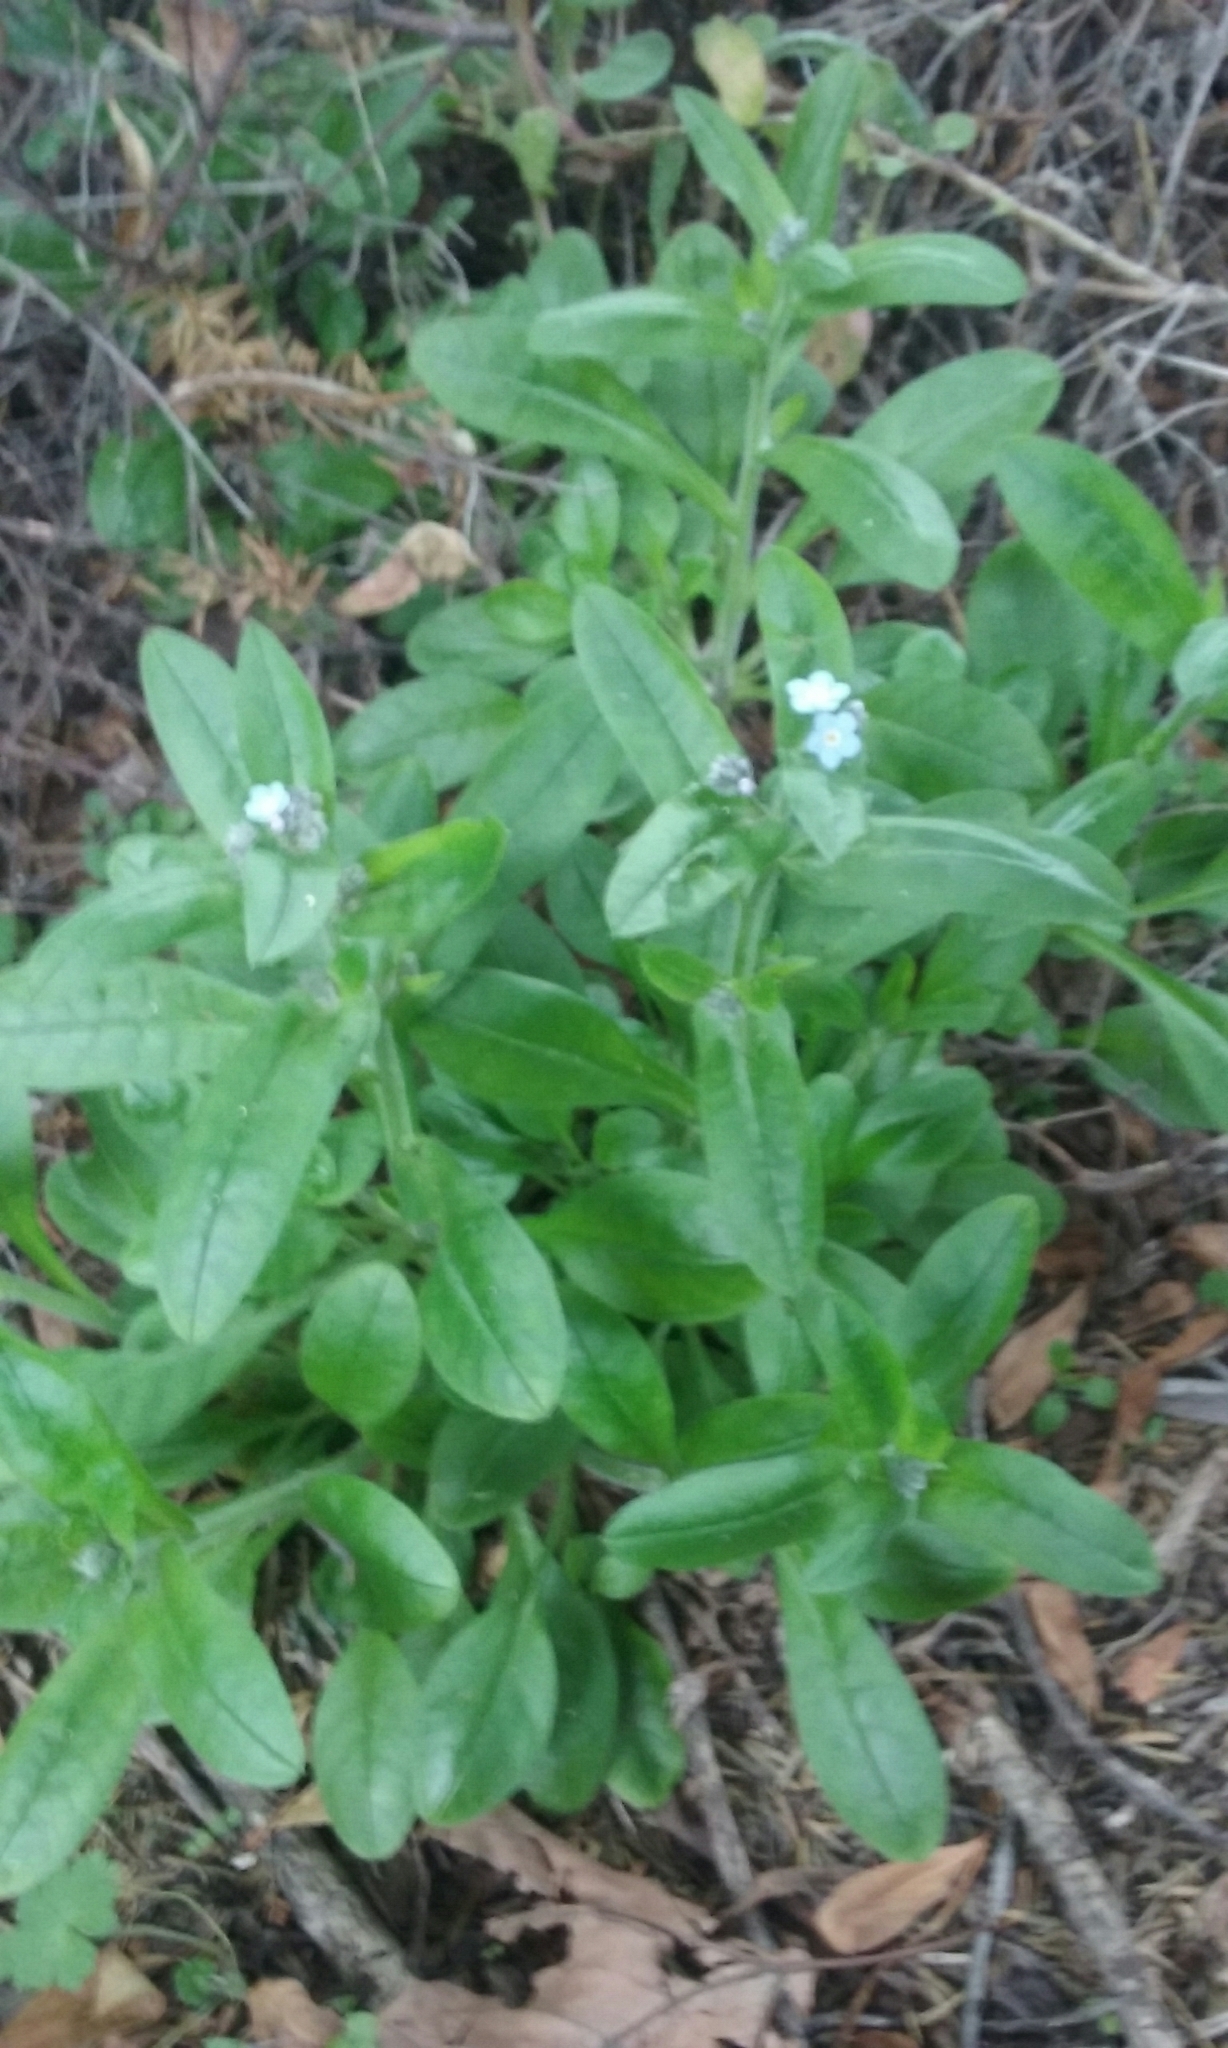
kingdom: Plantae
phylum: Tracheophyta
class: Magnoliopsida
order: Boraginales
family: Boraginaceae
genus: Myosotis
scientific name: Myosotis sylvatica
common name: Wood forget-me-not
